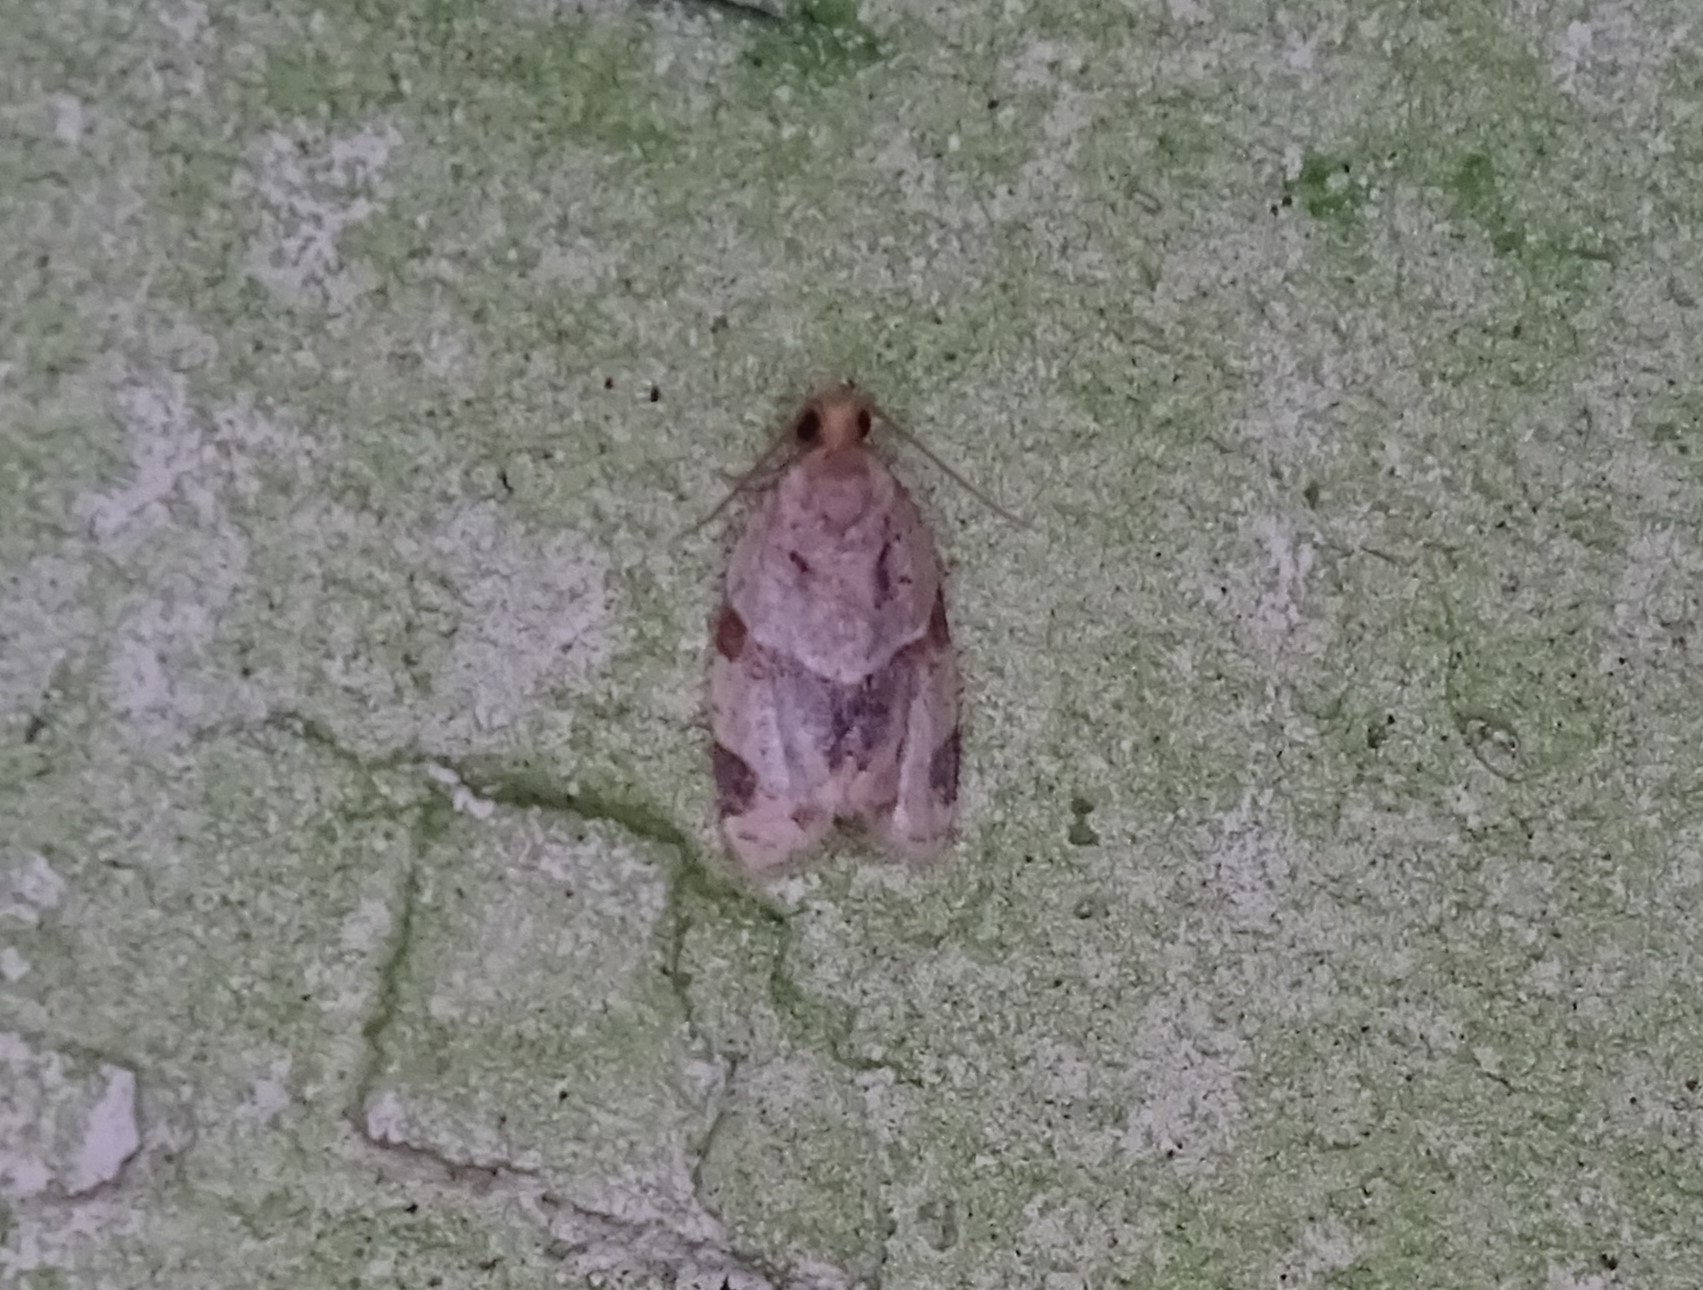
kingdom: Animalia
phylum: Arthropoda
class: Insecta
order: Lepidoptera
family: Tortricidae
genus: Clepsis
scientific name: Clepsis peritana
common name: Garden tortrix
